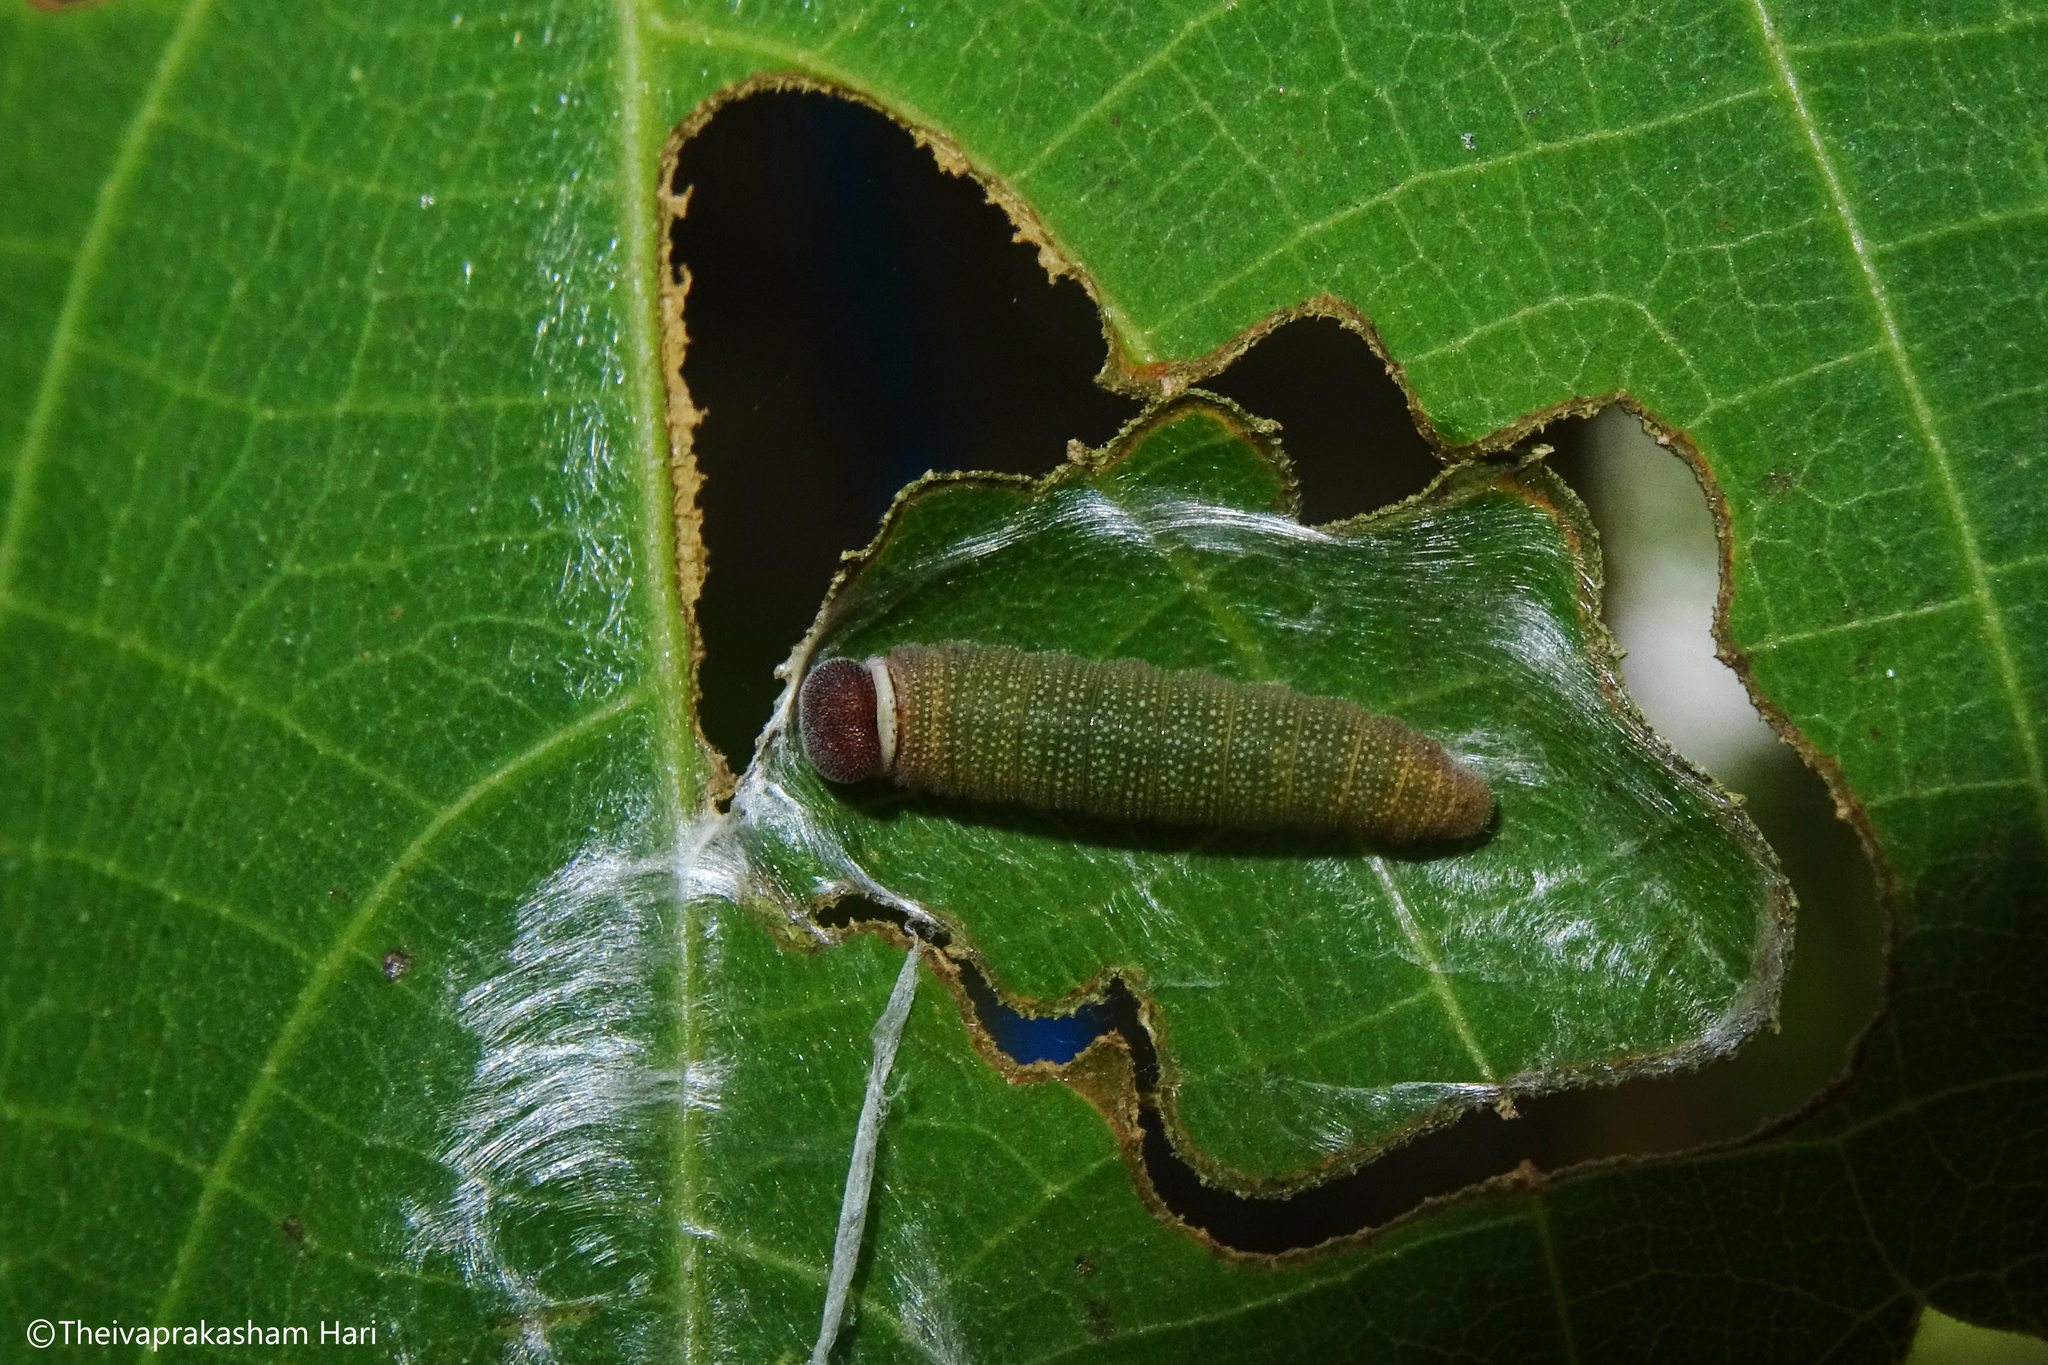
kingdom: Animalia
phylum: Arthropoda
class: Insecta
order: Lepidoptera
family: Hesperiidae
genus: Coladenia
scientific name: Coladenia
